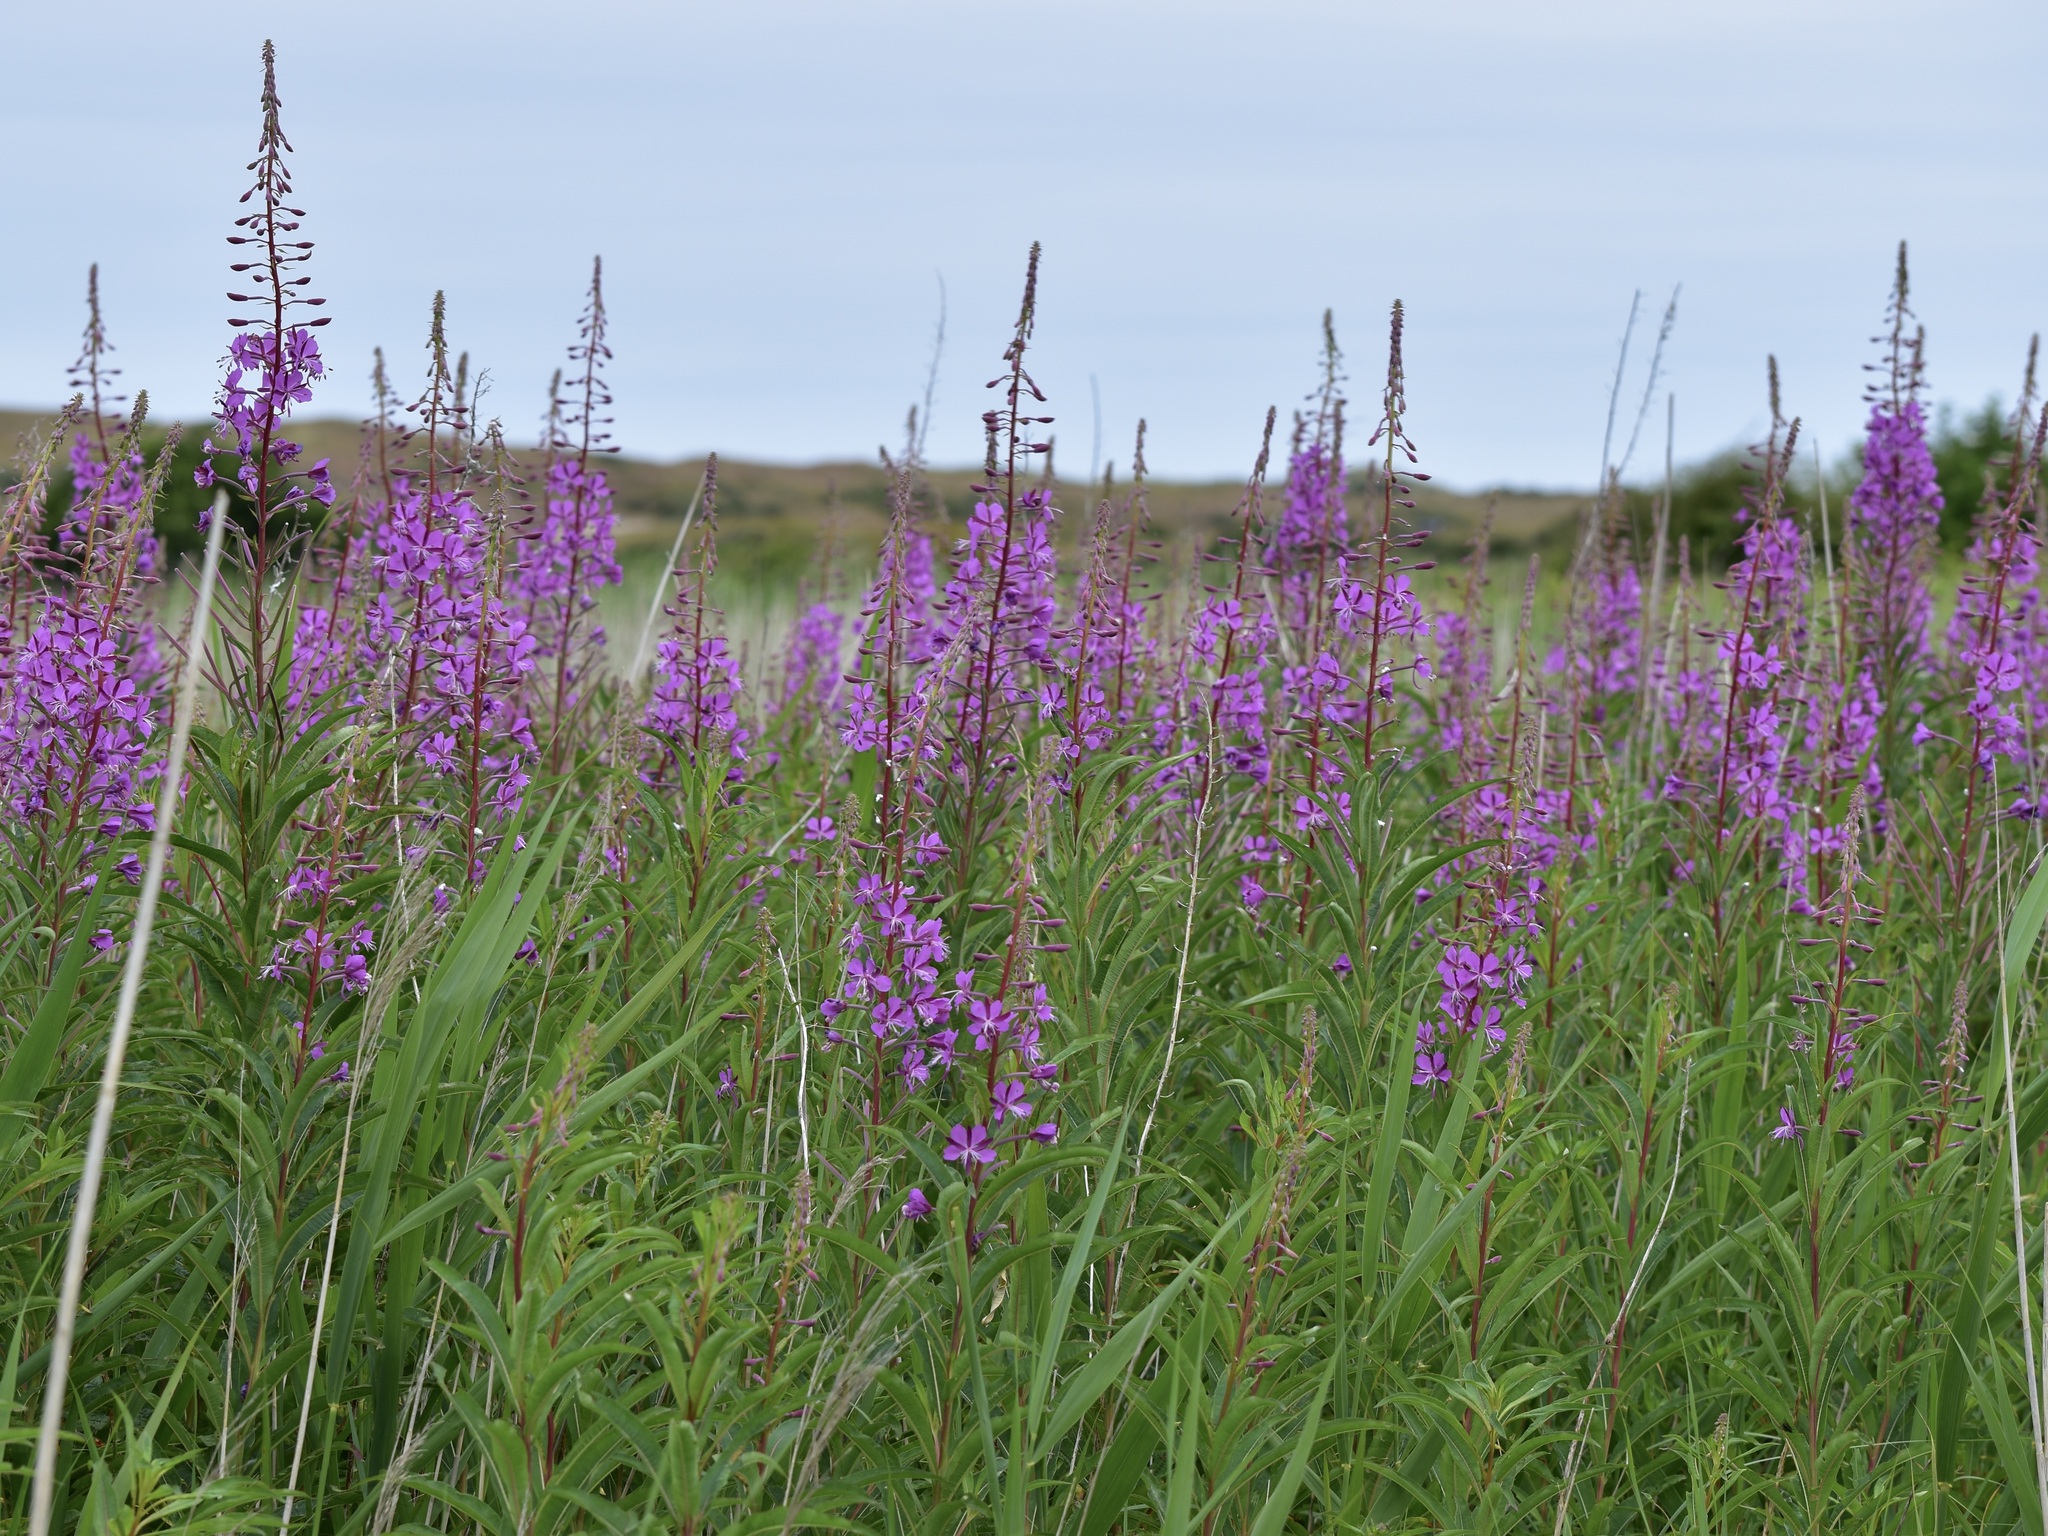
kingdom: Plantae
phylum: Tracheophyta
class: Magnoliopsida
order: Myrtales
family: Onagraceae
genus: Chamaenerion
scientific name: Chamaenerion angustifolium
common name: Fireweed
